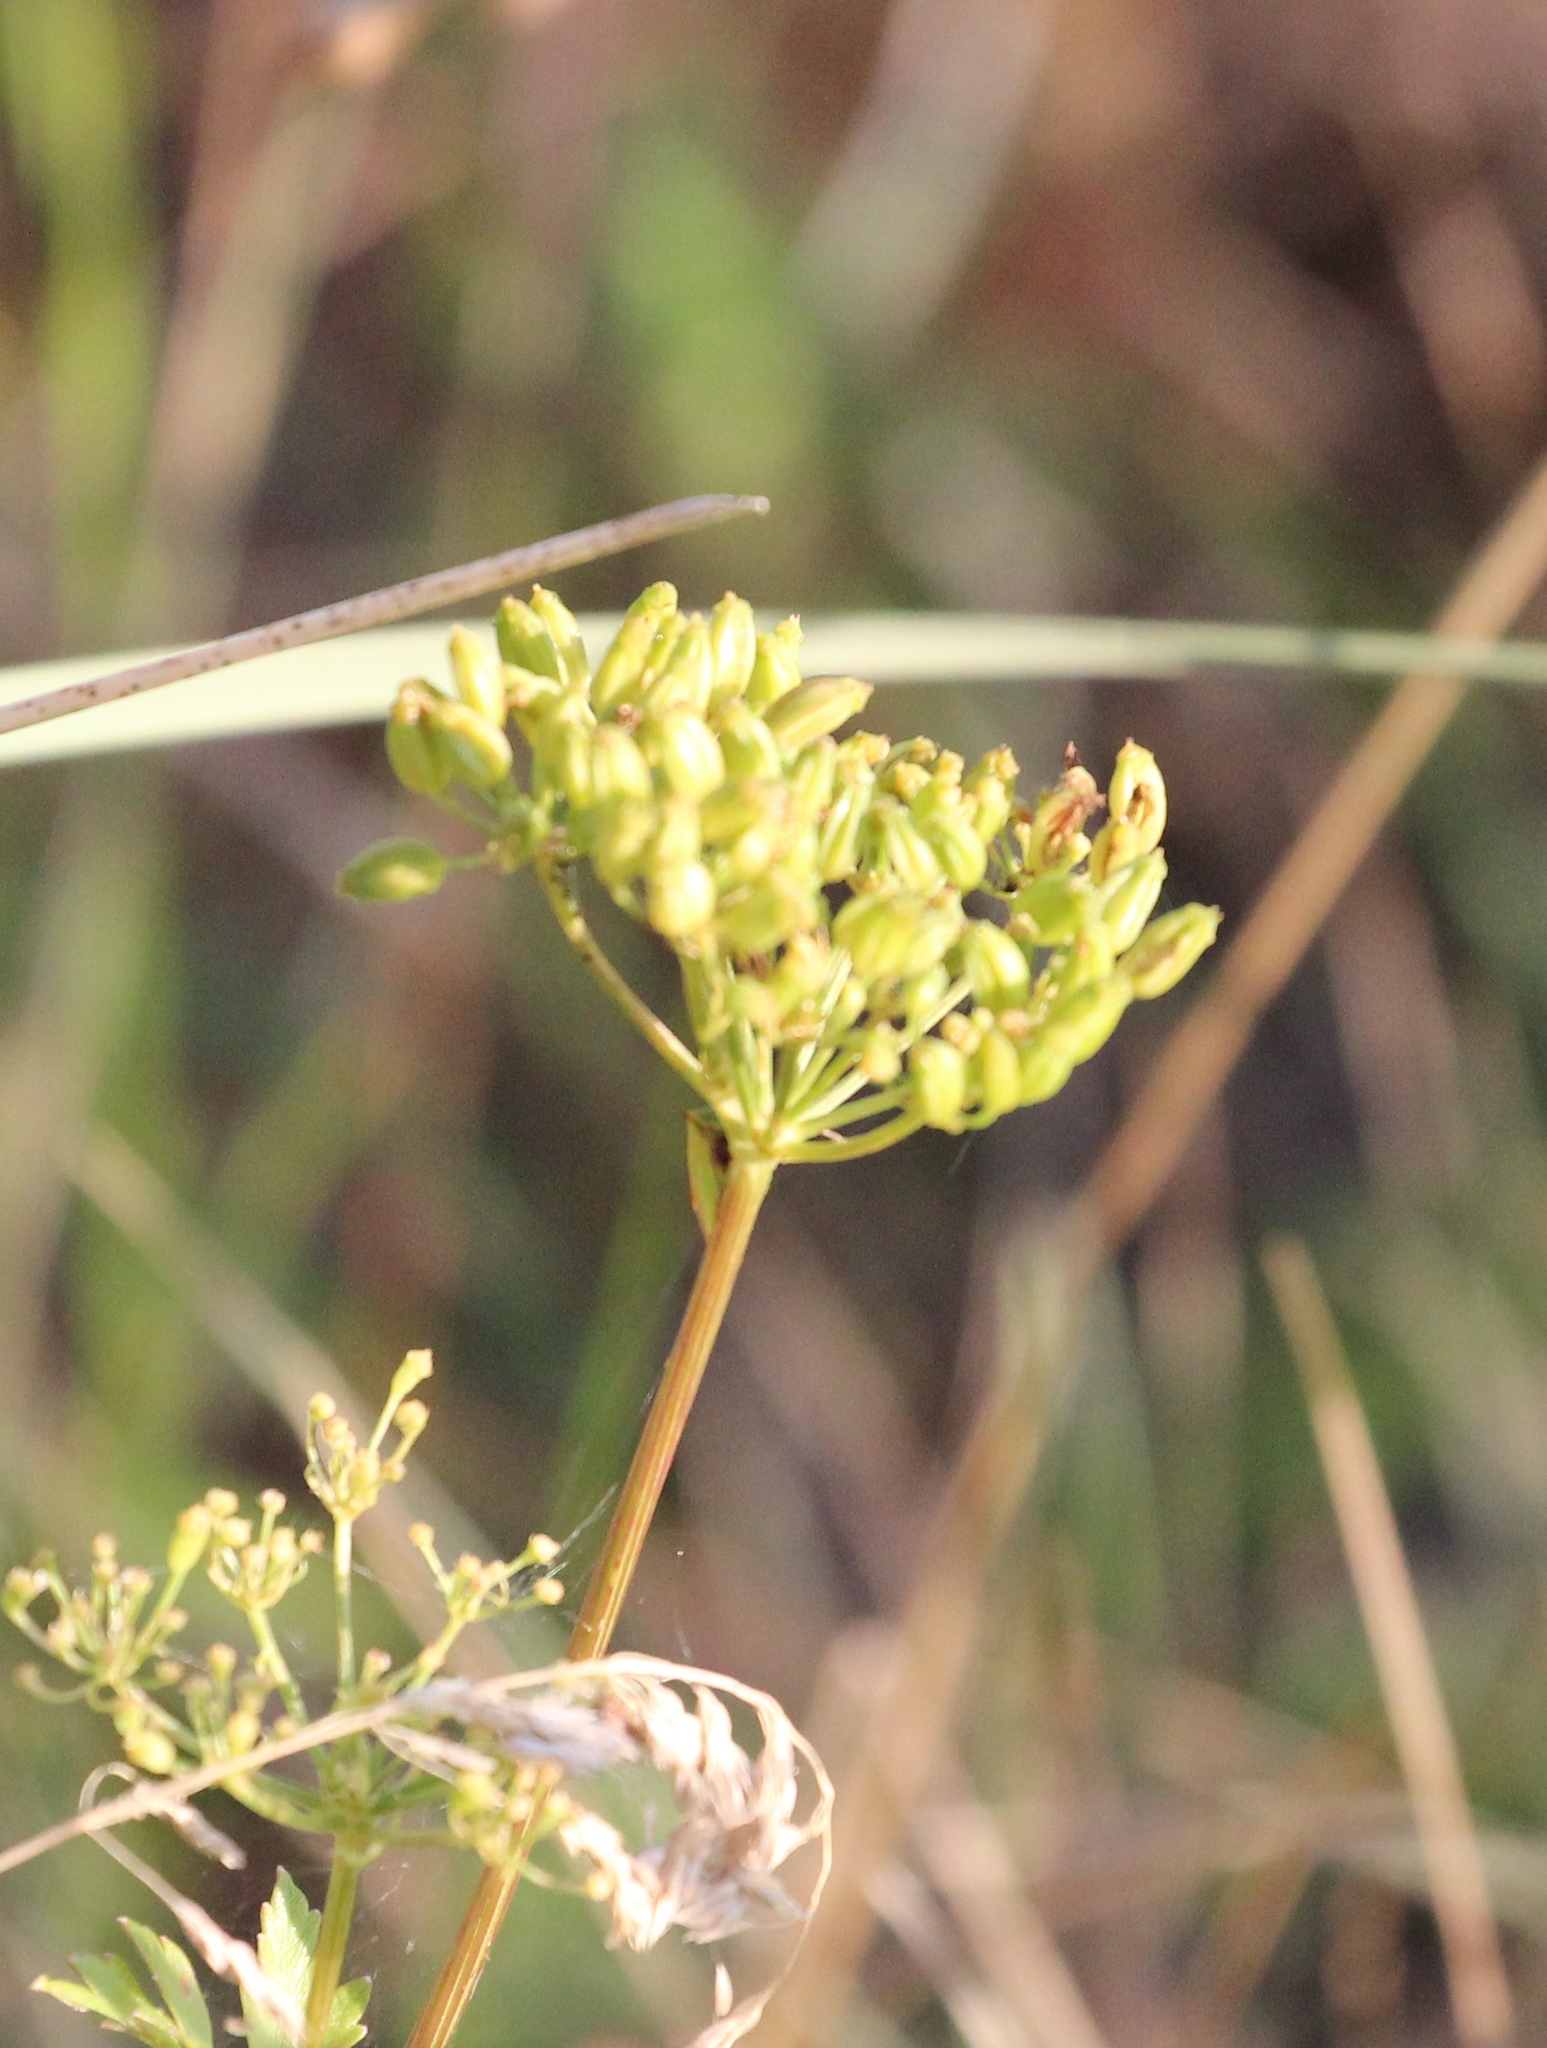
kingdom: Plantae
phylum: Tracheophyta
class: Magnoliopsida
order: Apiales
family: Apiaceae
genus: Ligusticum
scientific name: Ligusticum scothicum
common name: Beach lovage
